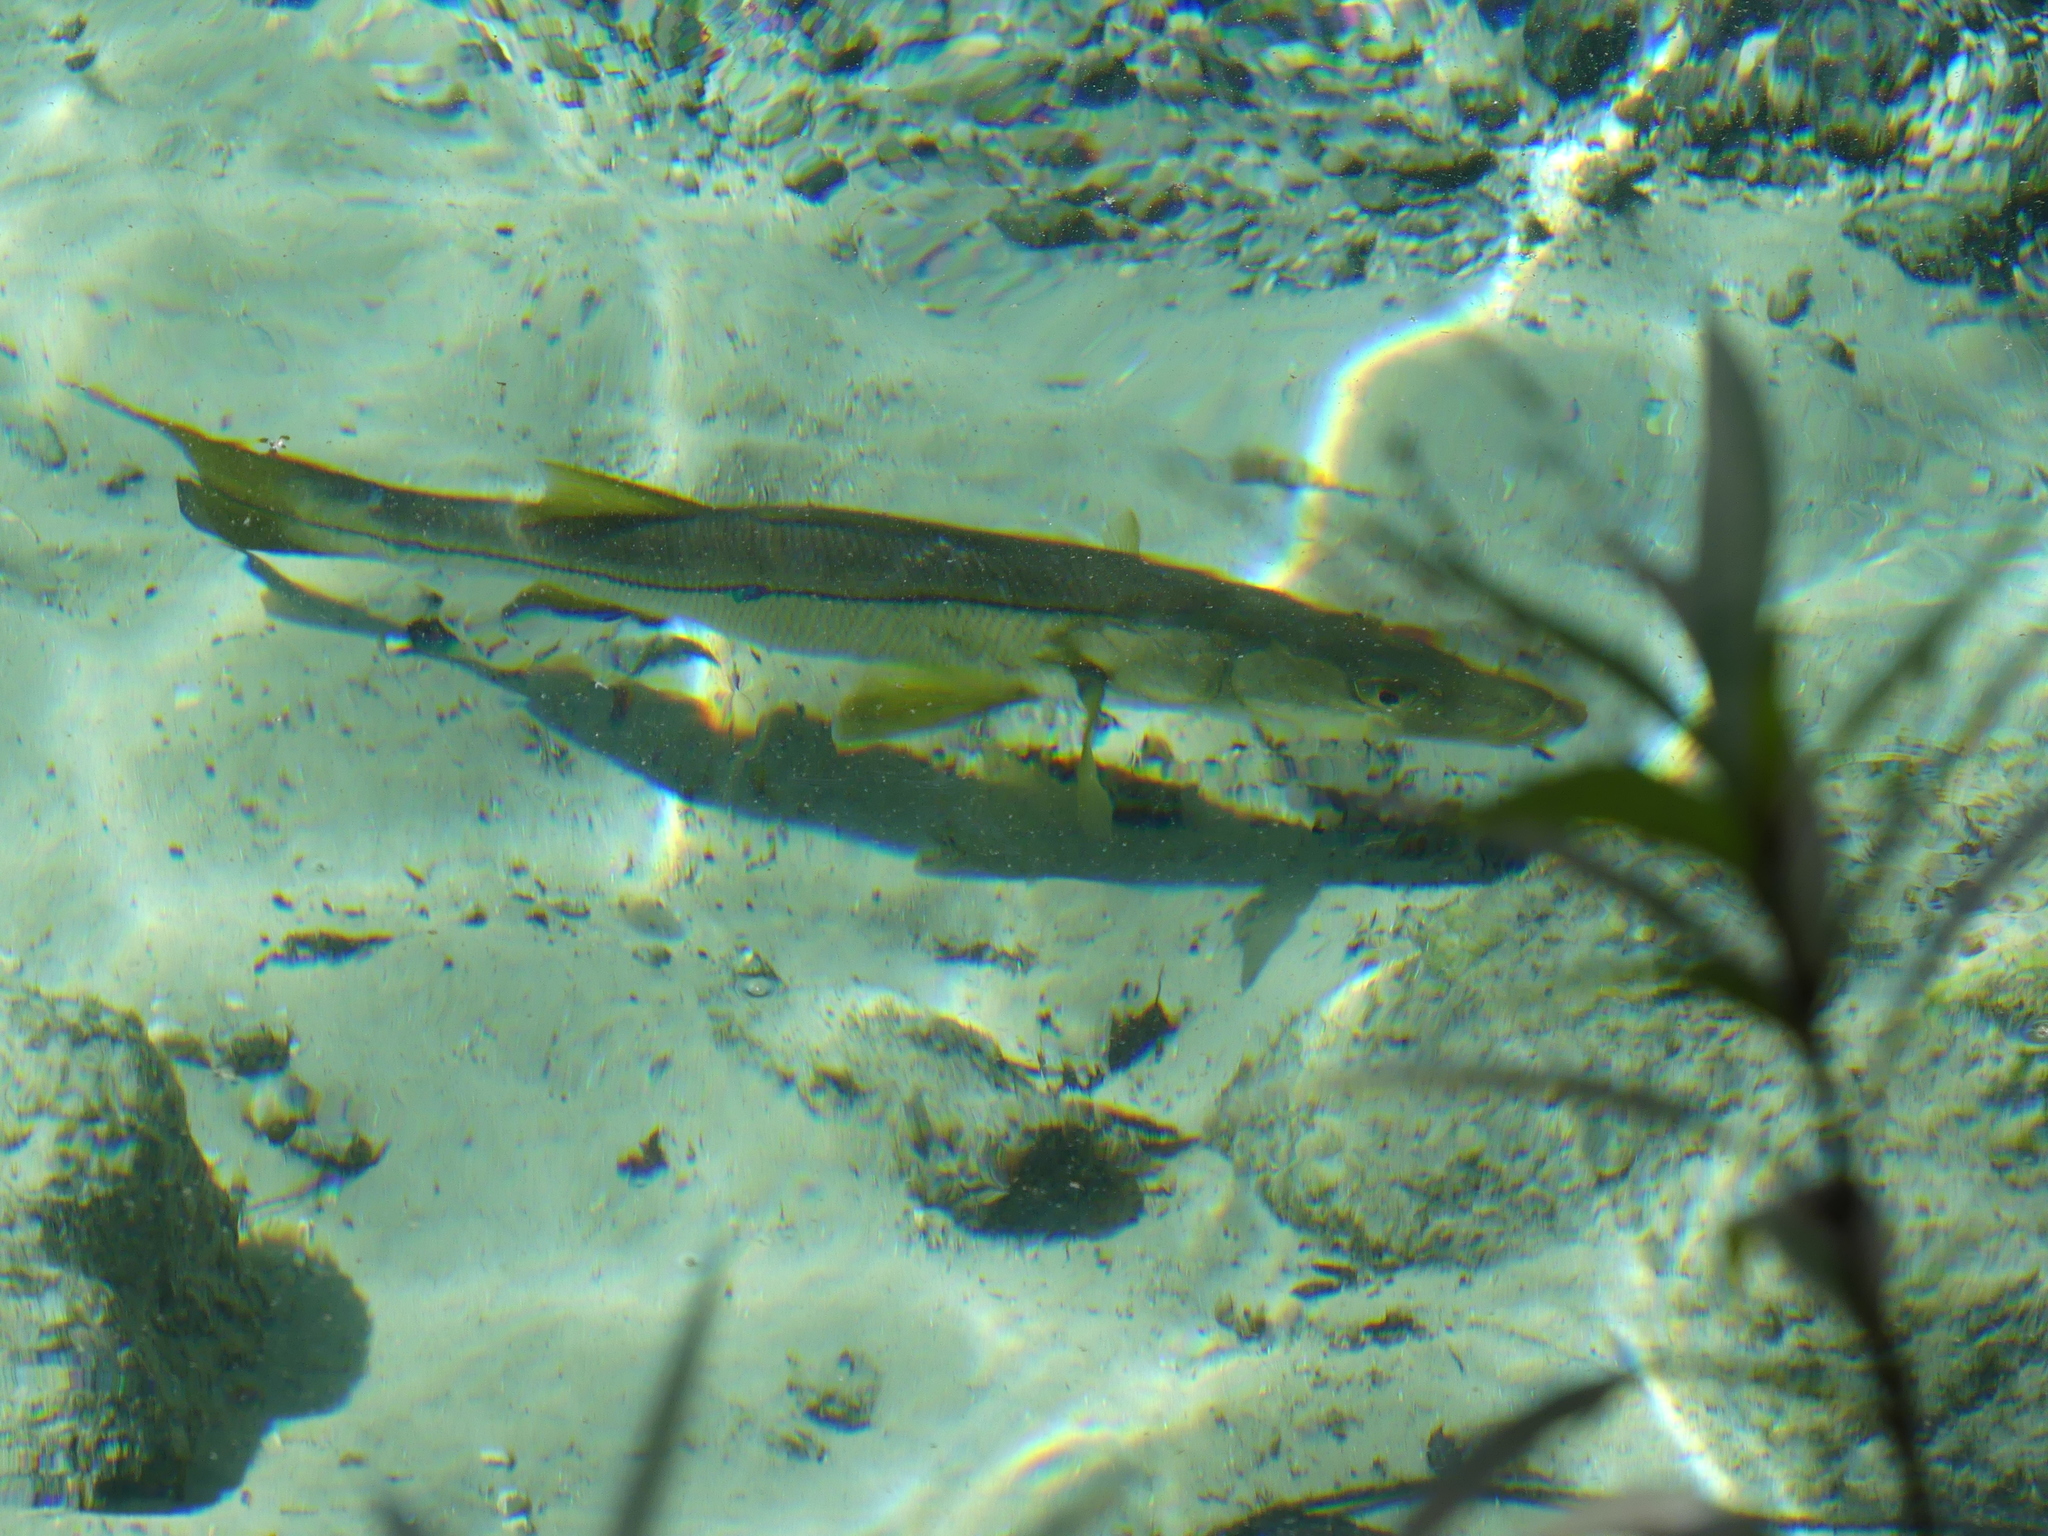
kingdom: Animalia
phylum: Chordata
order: Perciformes
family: Centropomidae
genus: Centropomus
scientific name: Centropomus undecimalis
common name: Snook
